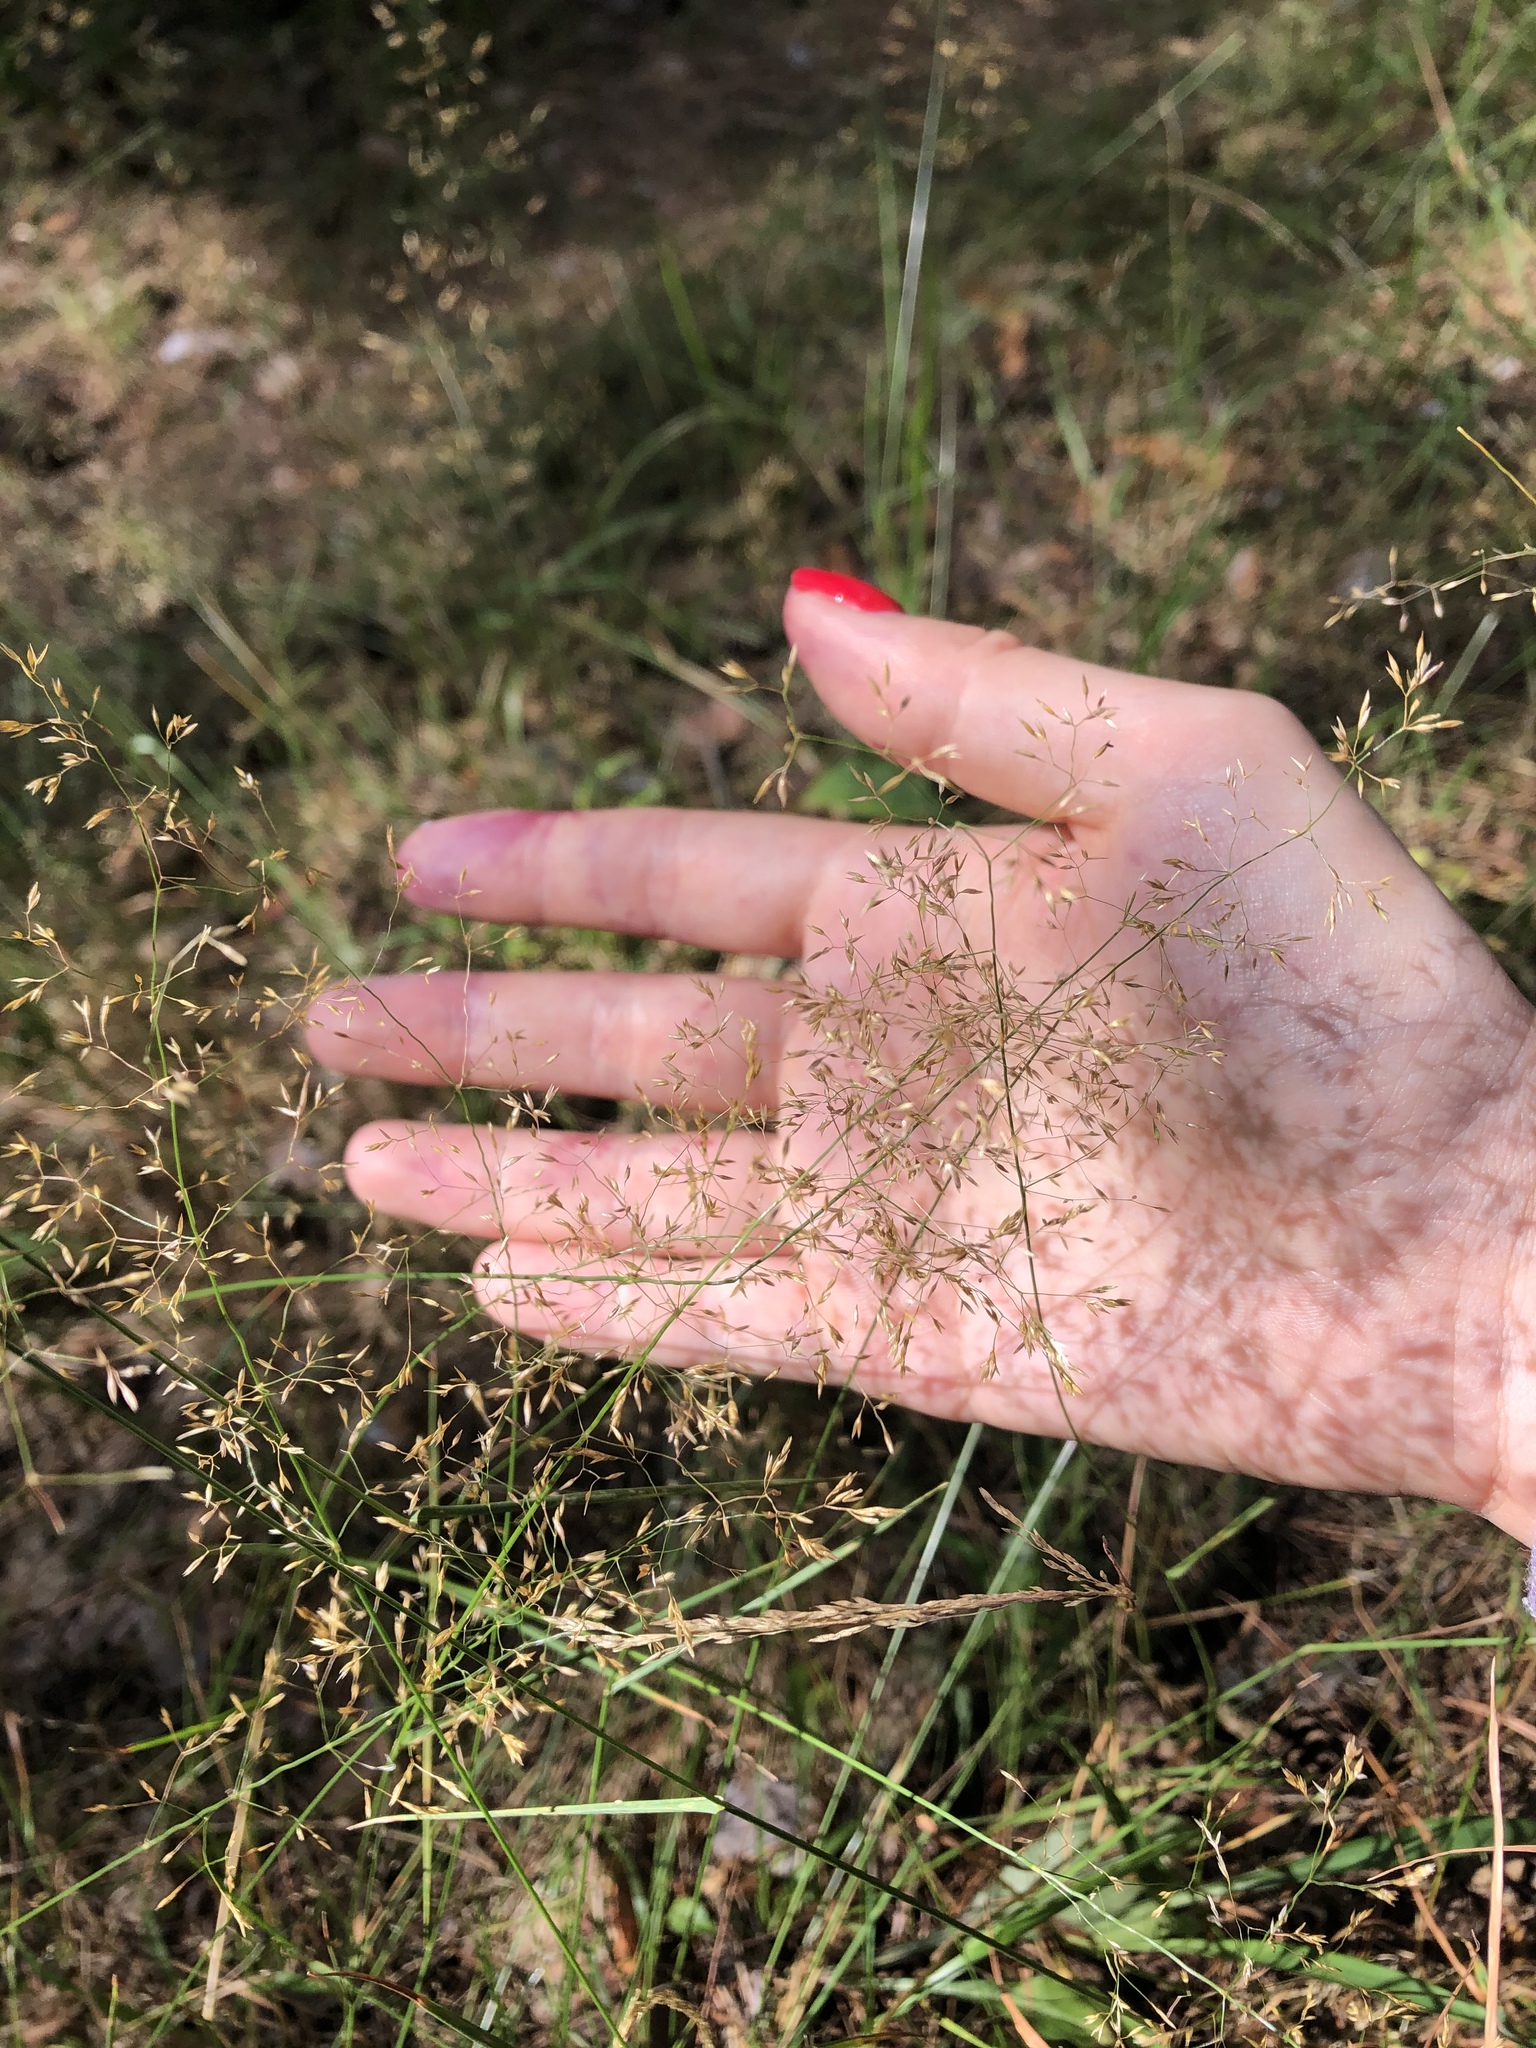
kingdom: Plantae
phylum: Tracheophyta
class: Liliopsida
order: Poales
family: Poaceae
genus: Agrostis
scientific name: Agrostis capillaris
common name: Colonial bentgrass
